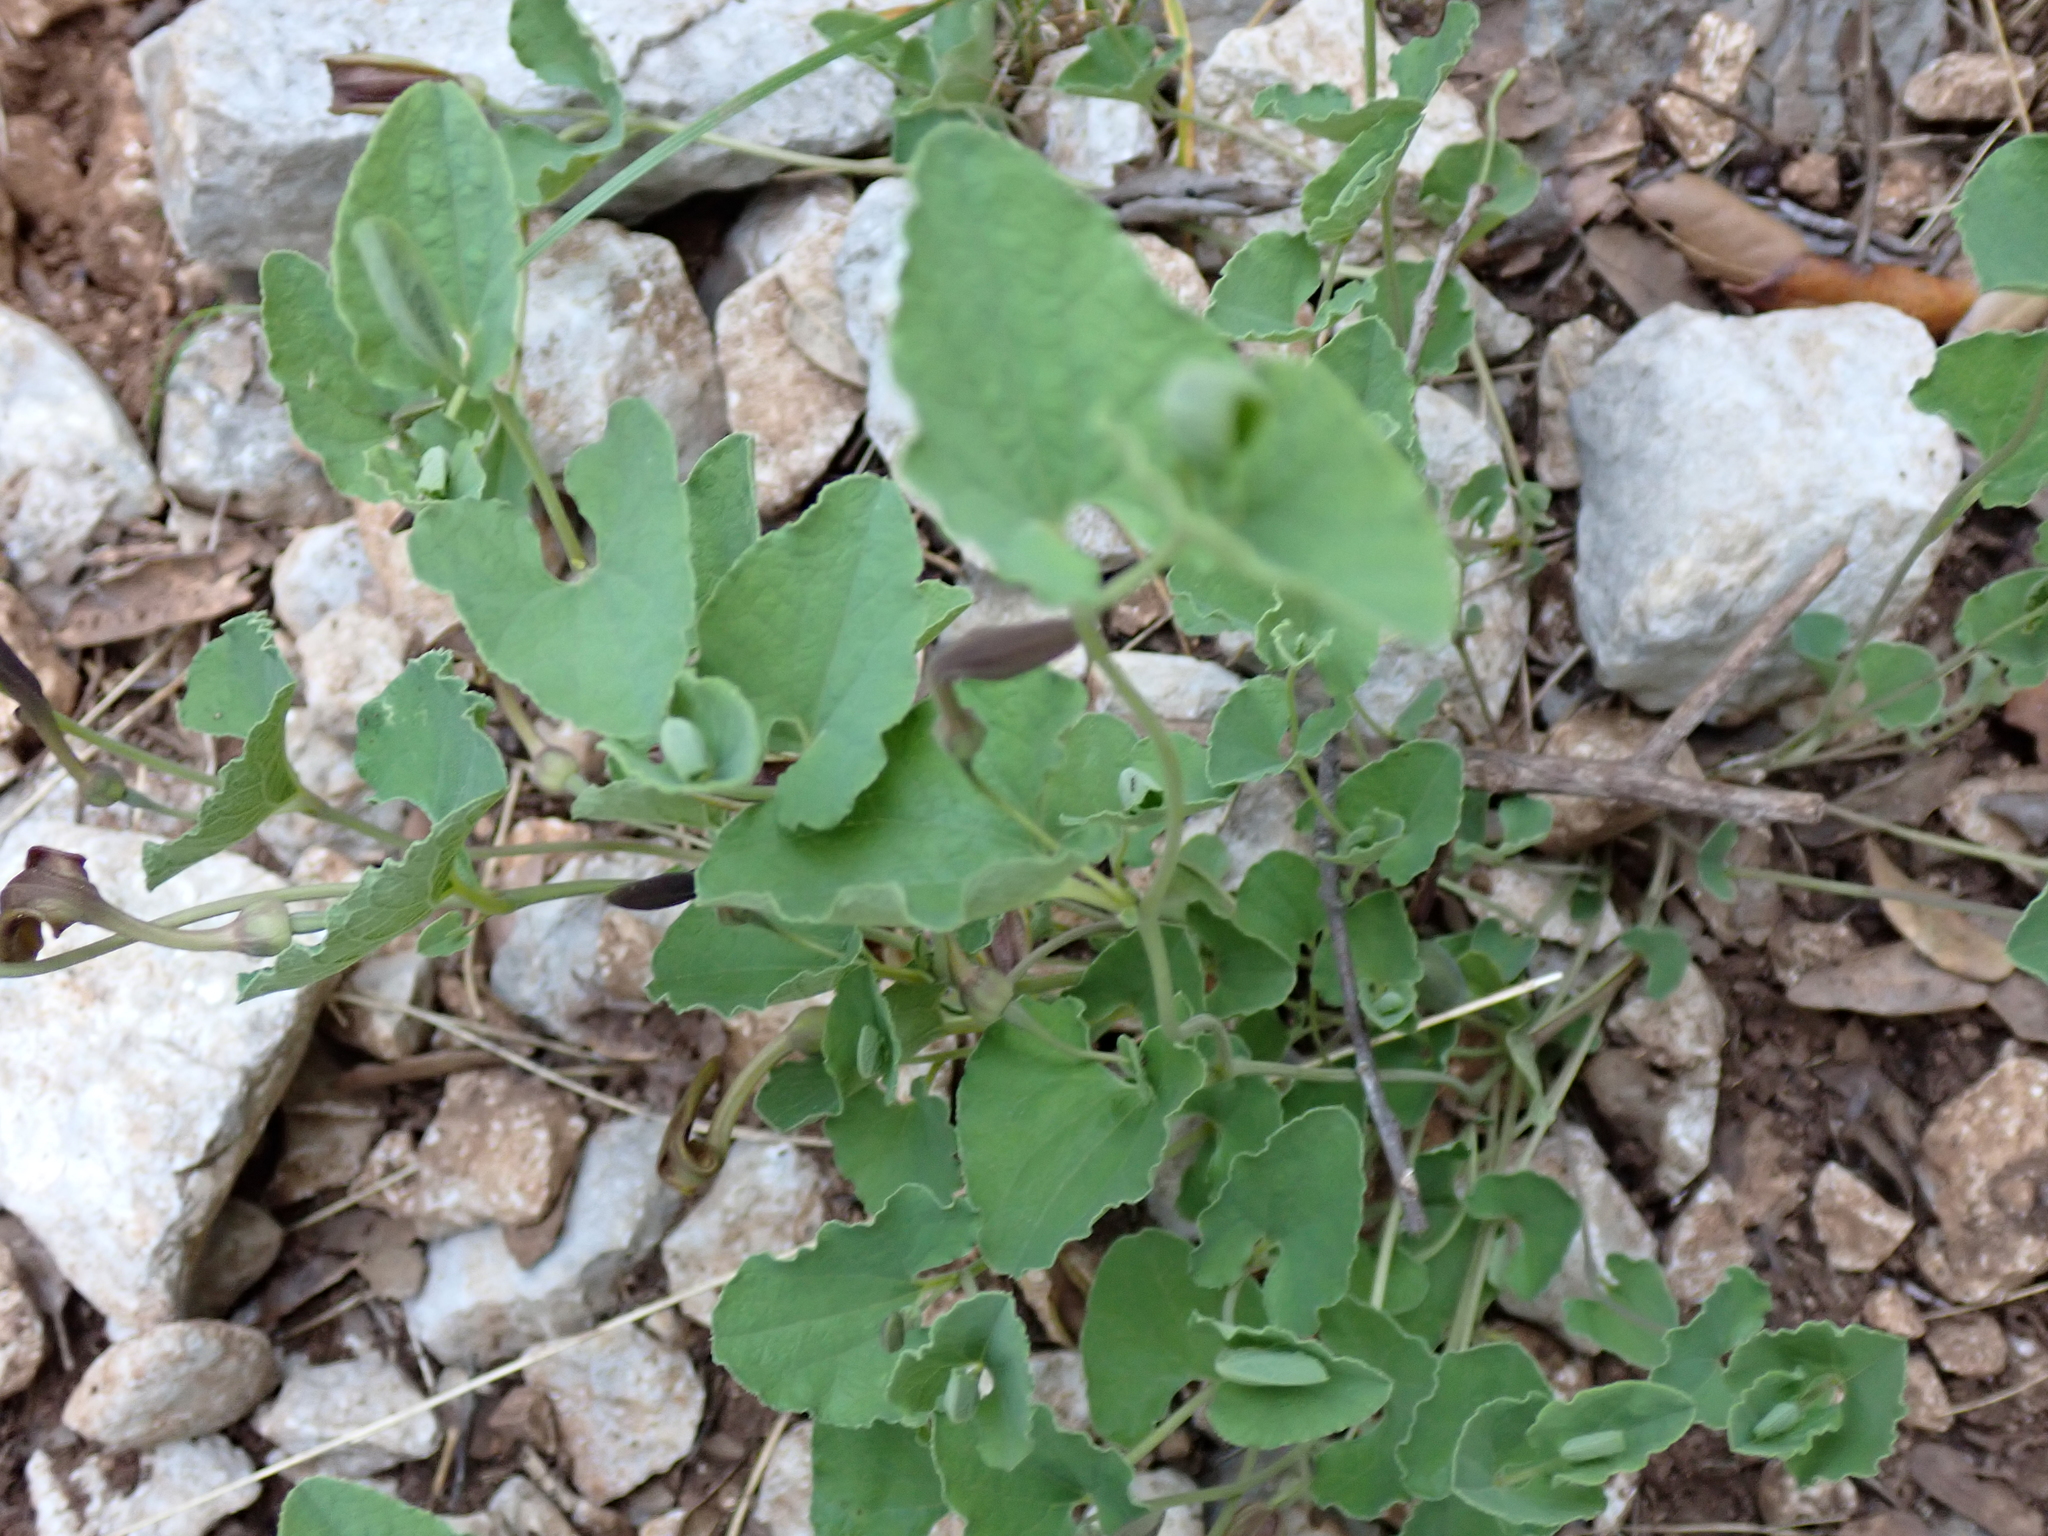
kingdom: Plantae
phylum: Tracheophyta
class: Magnoliopsida
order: Piperales
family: Aristolochiaceae
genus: Aristolochia
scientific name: Aristolochia pistolochia
